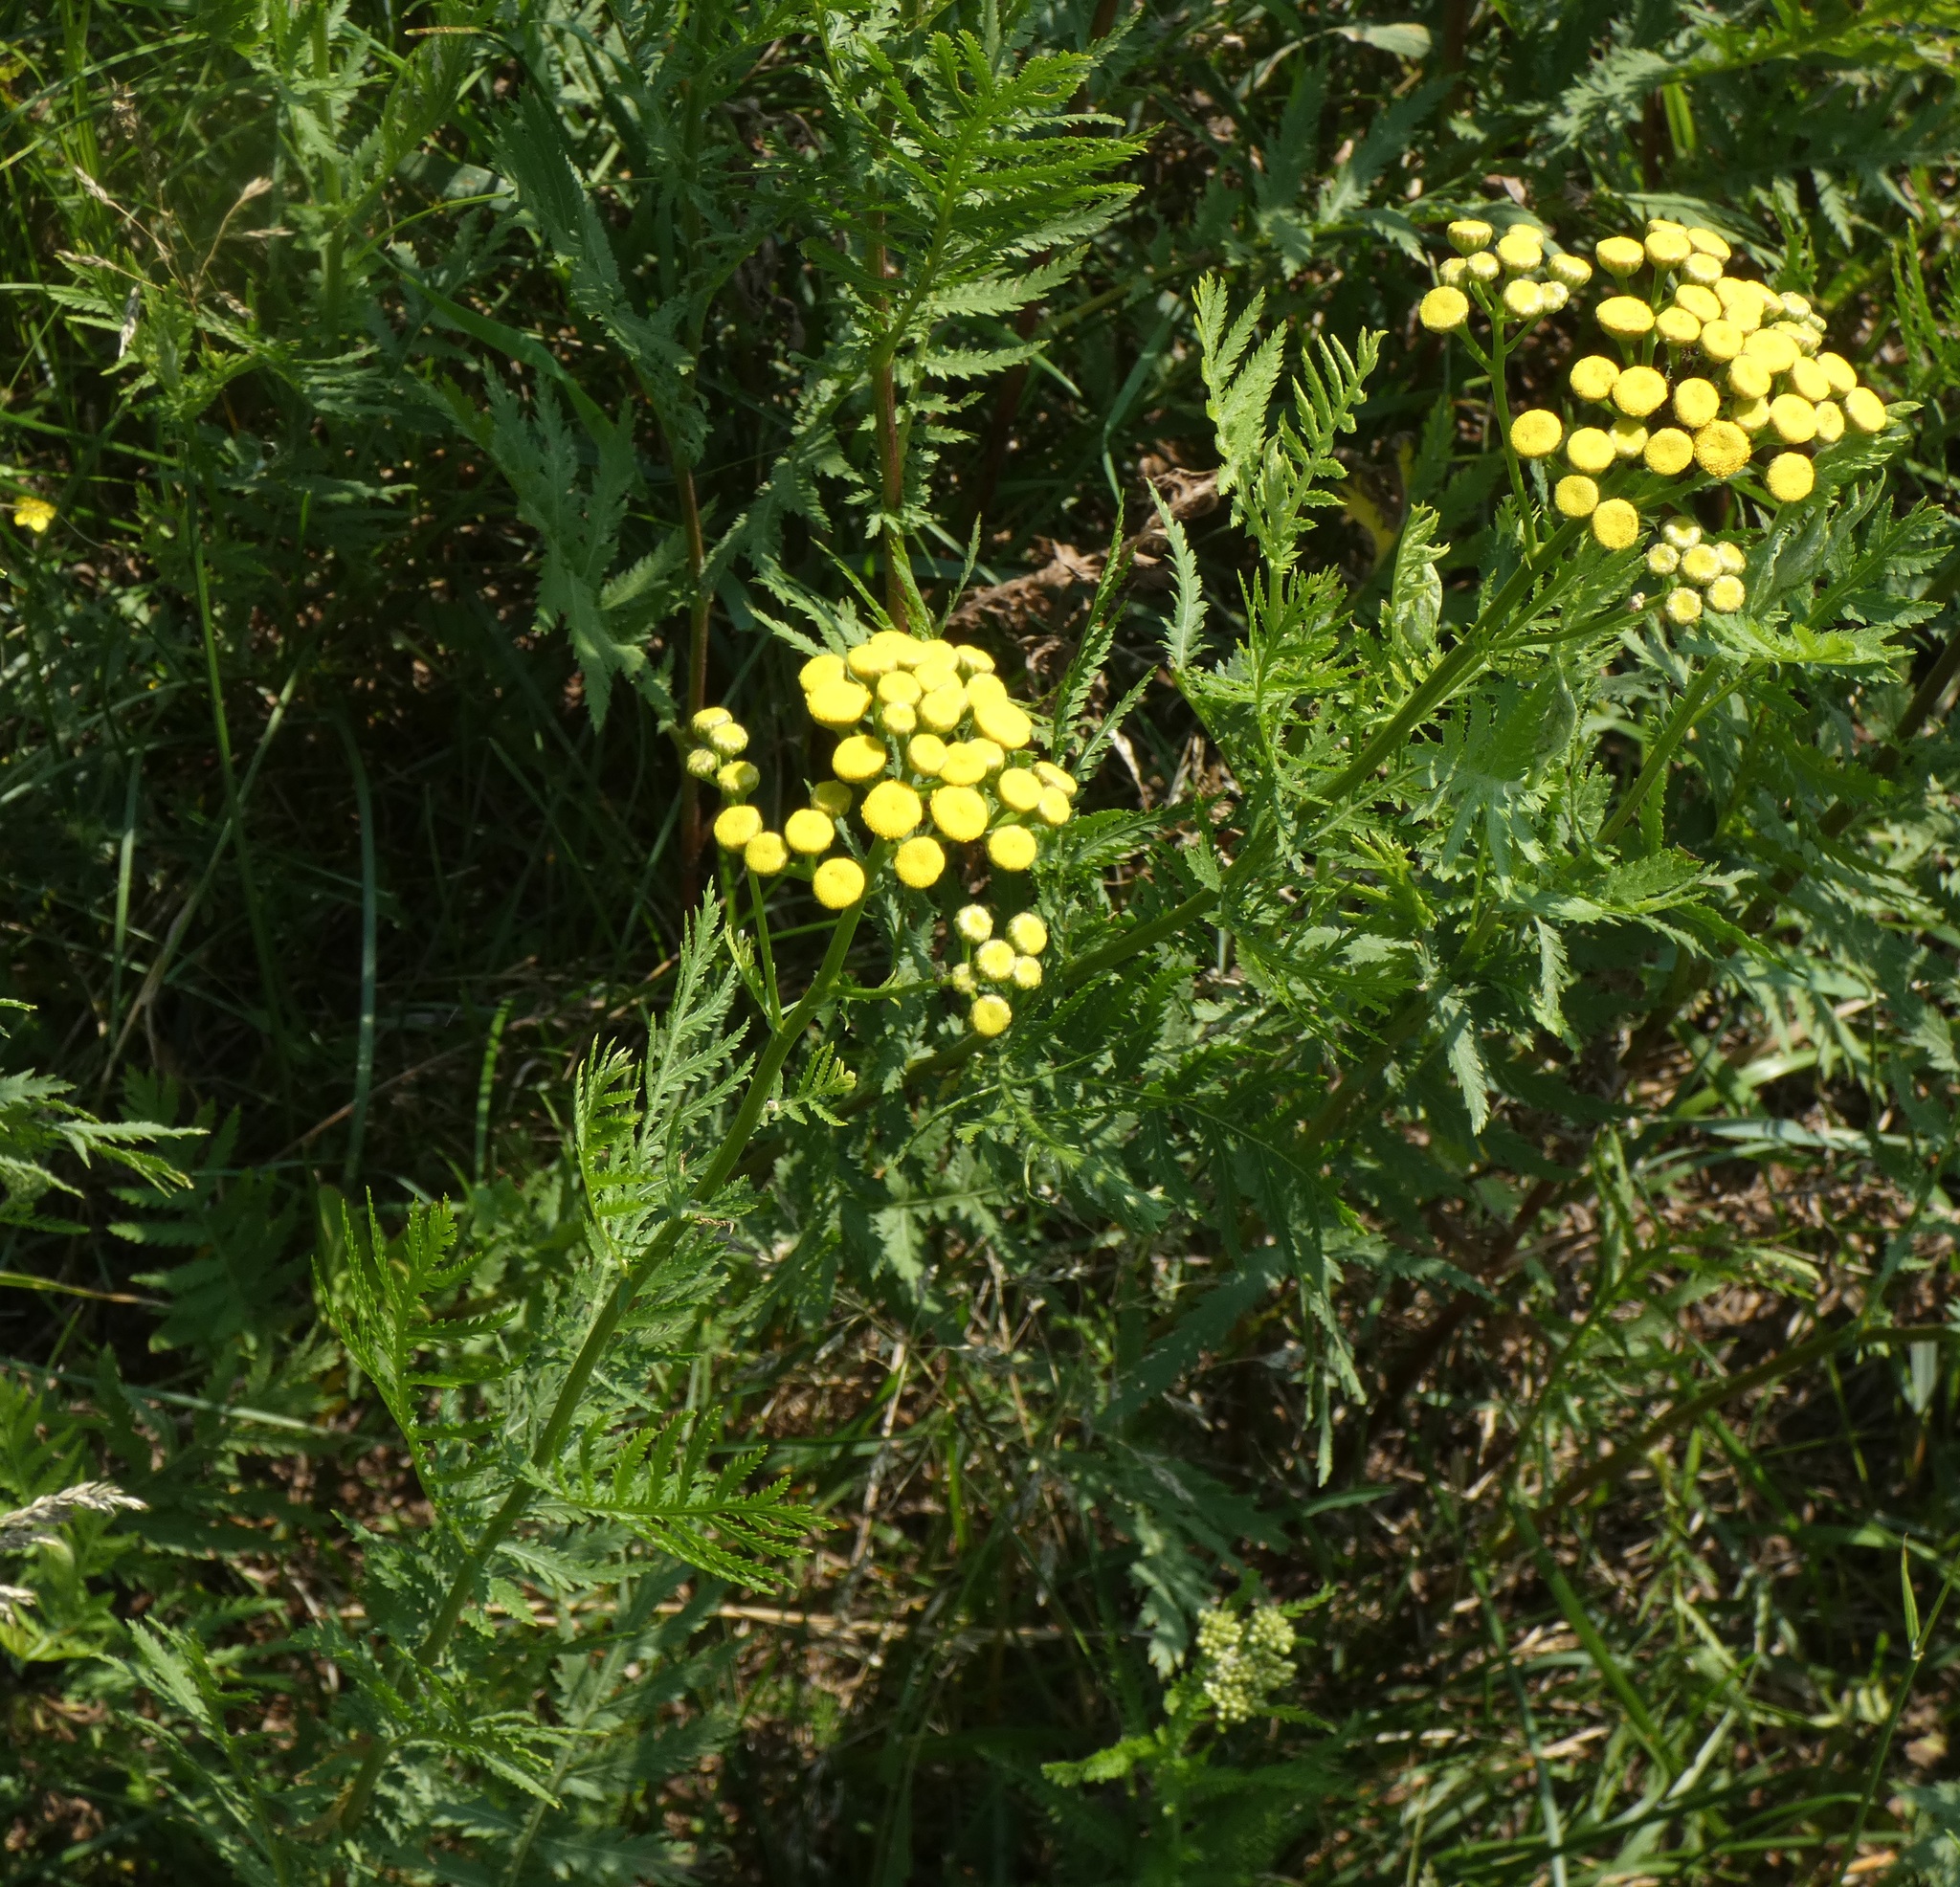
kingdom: Plantae
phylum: Tracheophyta
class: Magnoliopsida
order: Asterales
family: Asteraceae
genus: Tanacetum
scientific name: Tanacetum vulgare
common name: Common tansy
